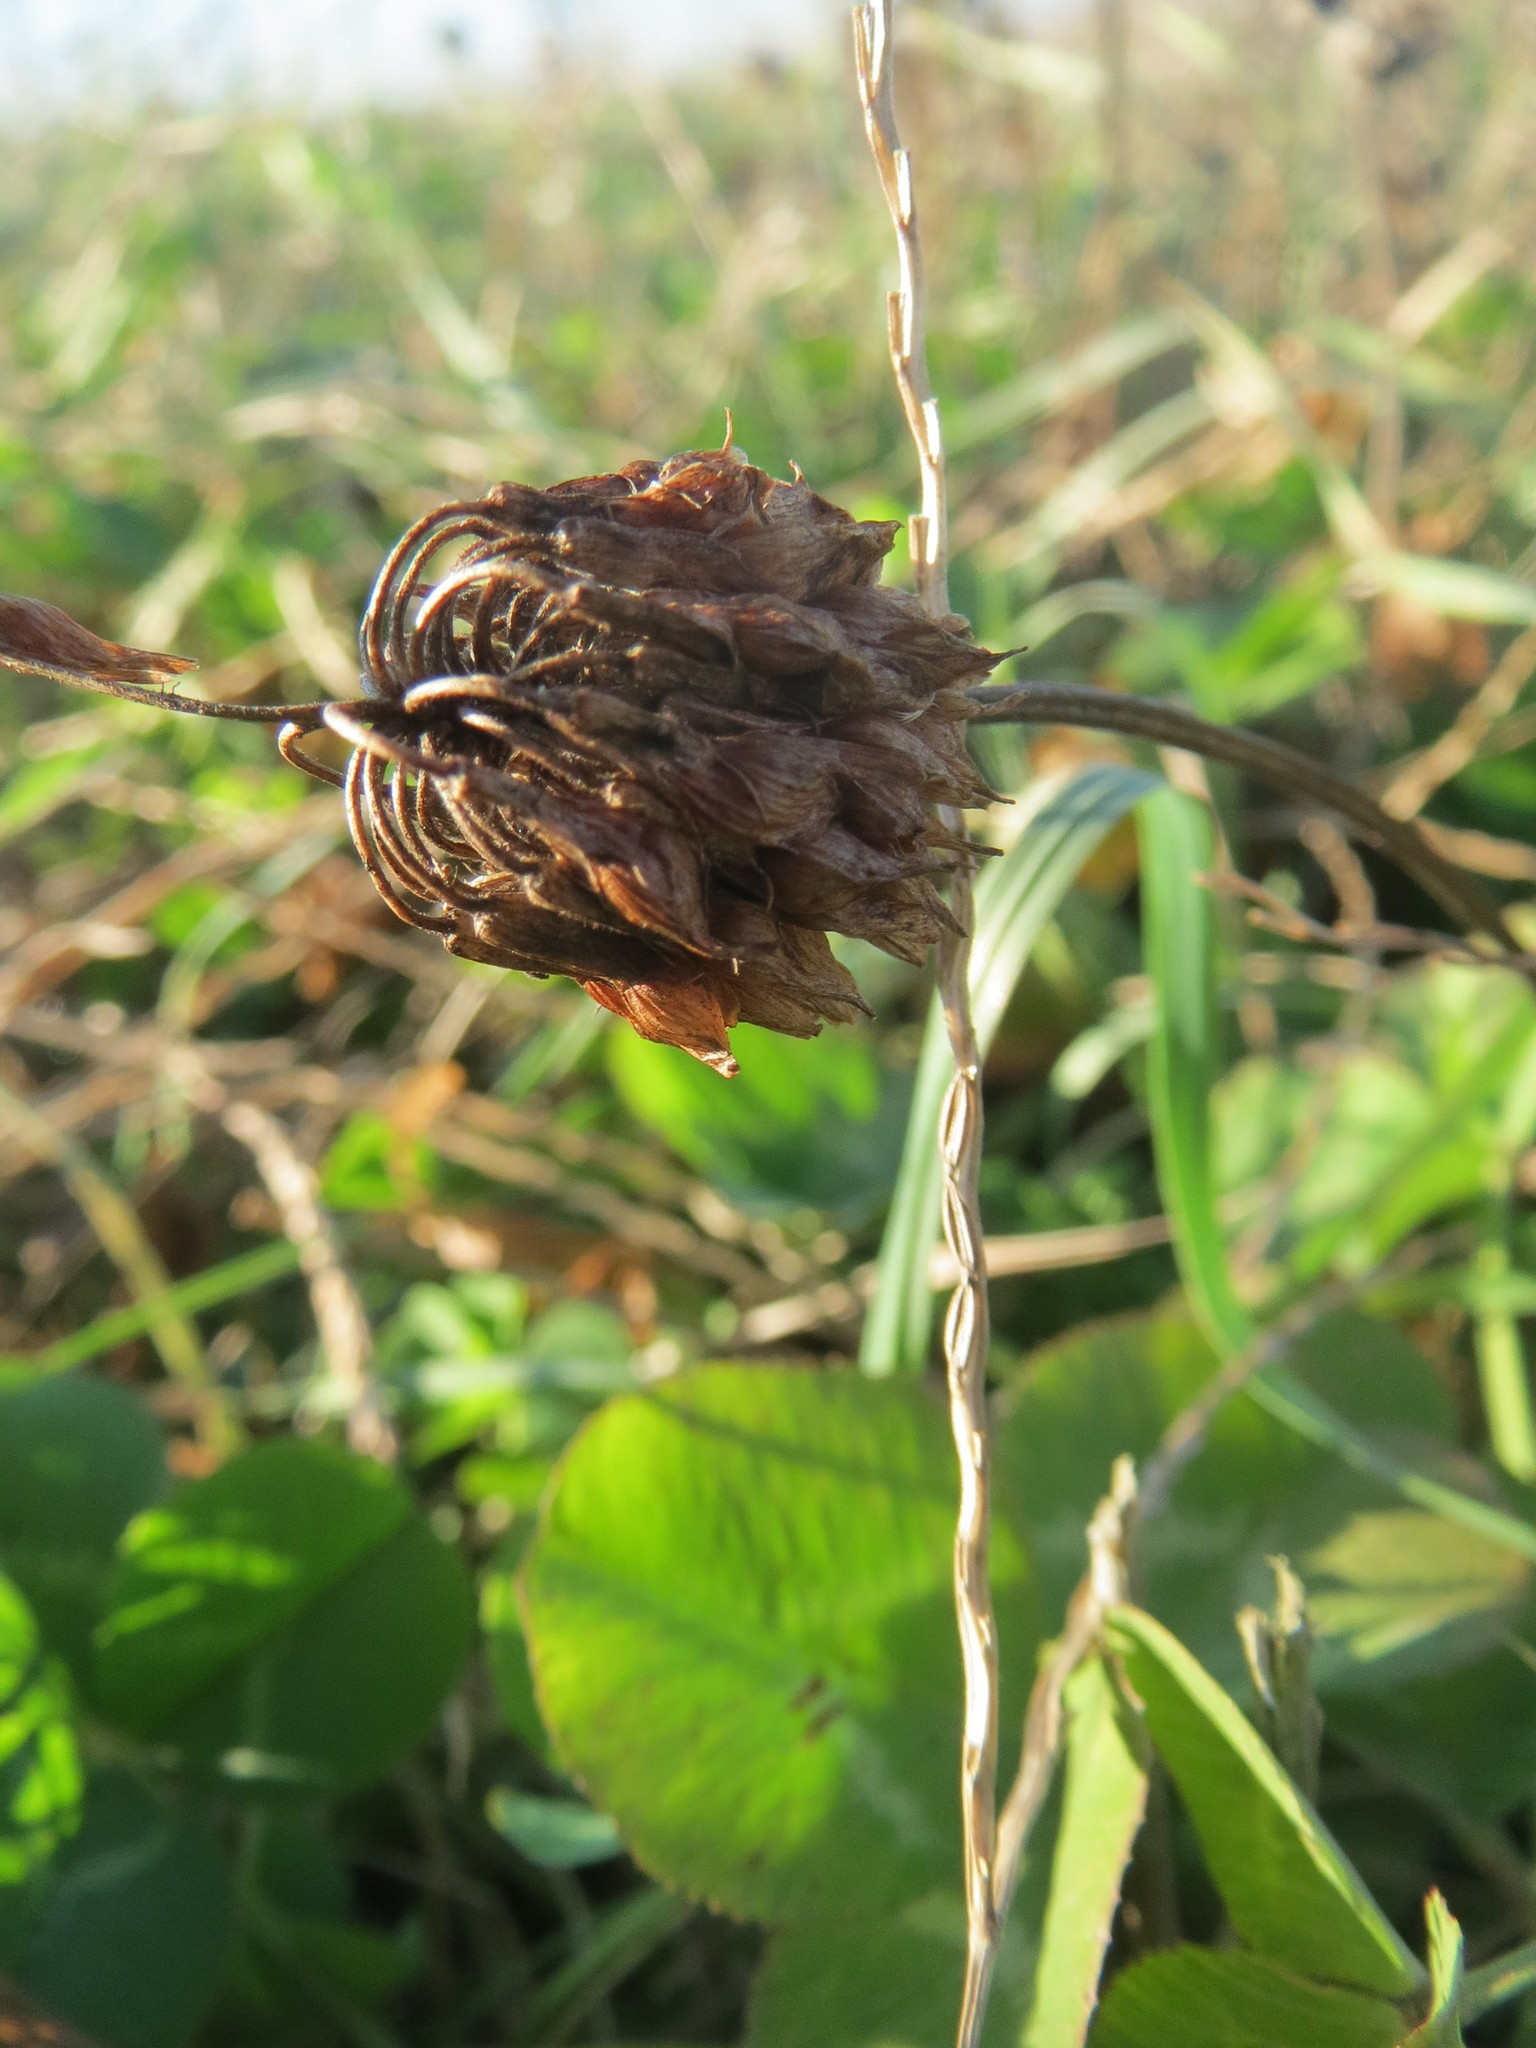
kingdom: Plantae
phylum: Tracheophyta
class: Magnoliopsida
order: Fabales
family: Fabaceae
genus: Trifolium
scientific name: Trifolium repens
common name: White clover
